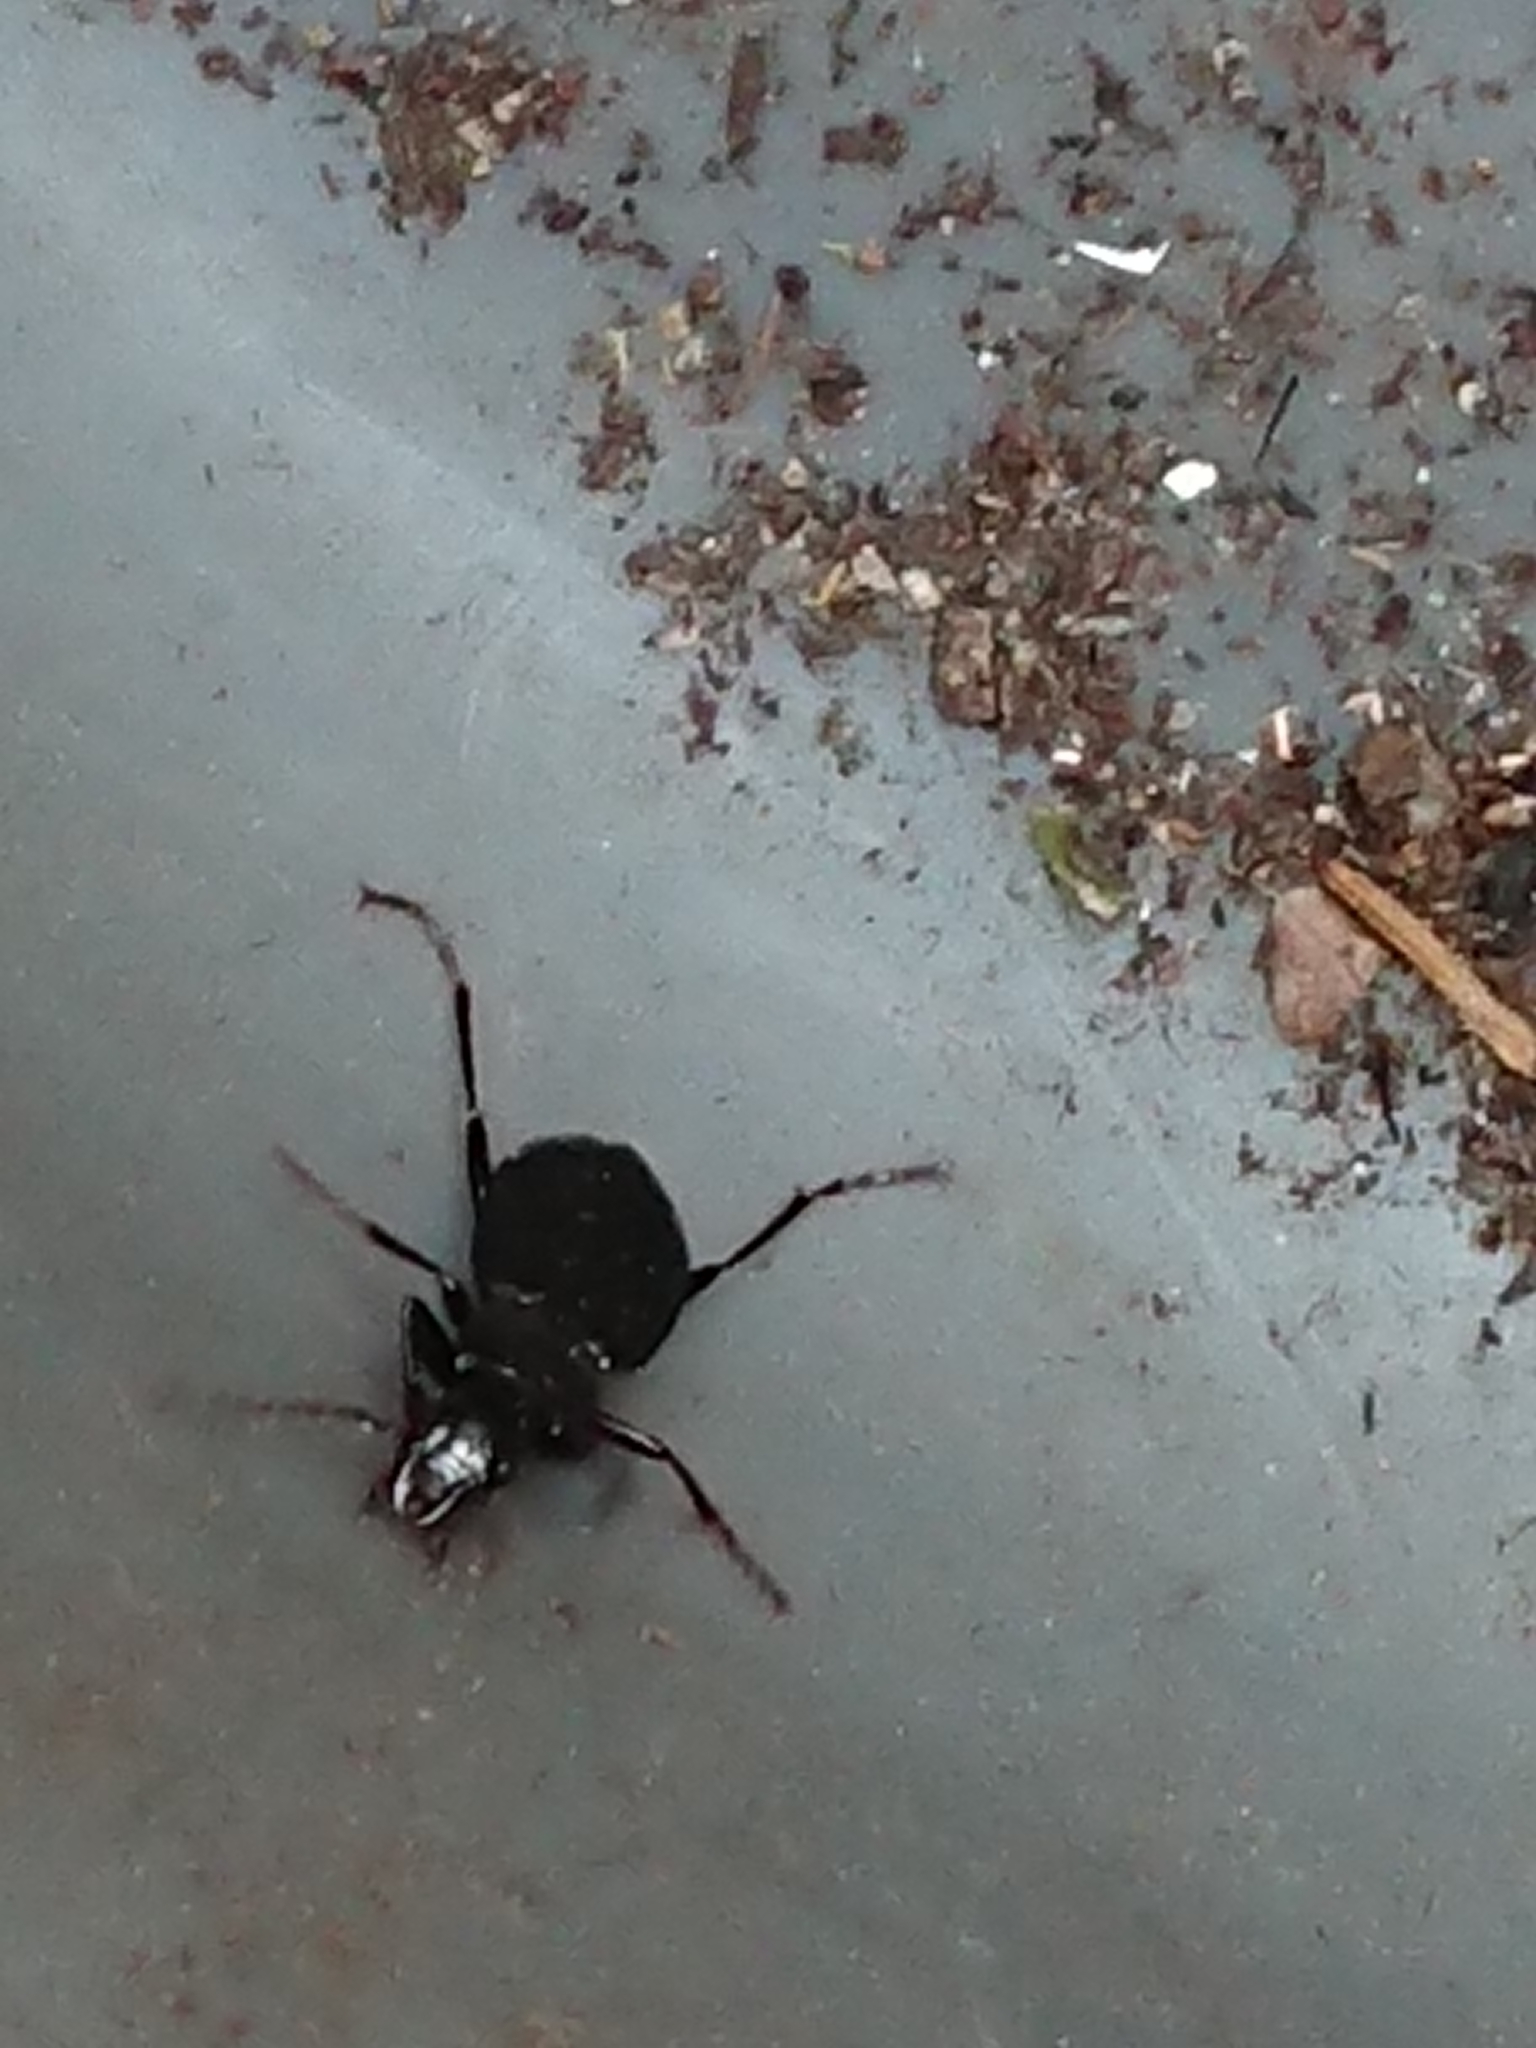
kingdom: Animalia
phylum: Arthropoda
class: Insecta
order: Coleoptera
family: Carabidae
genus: Laemostenus
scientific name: Laemostenus complanatus
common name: Cosmopolitan ground beetle
